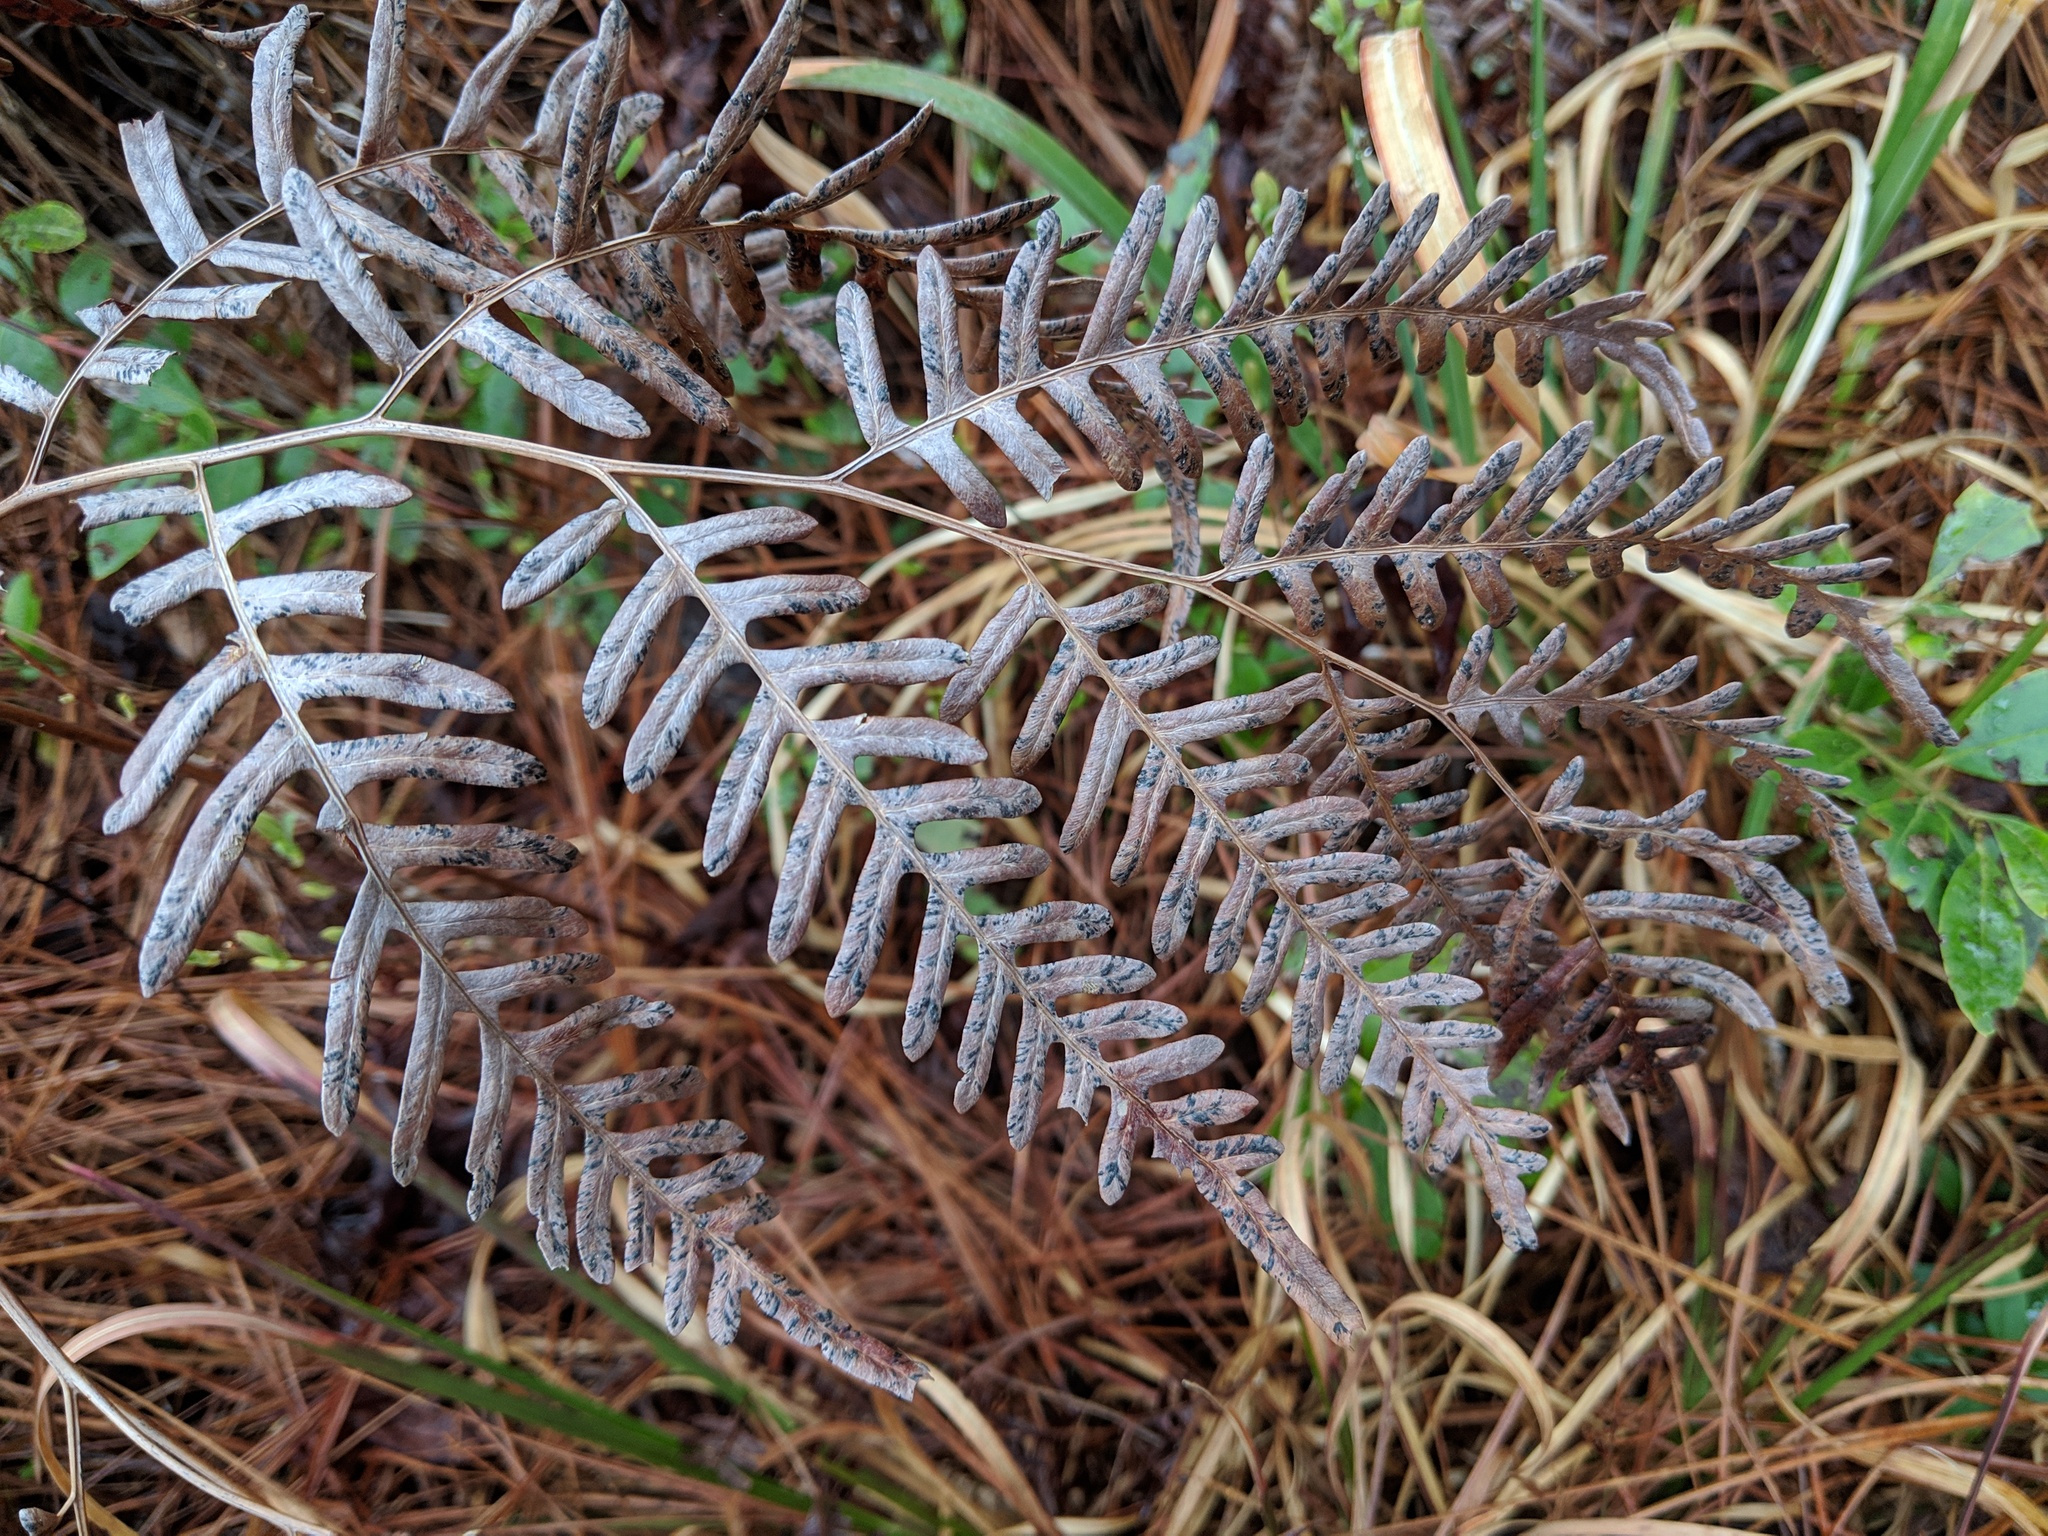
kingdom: Plantae
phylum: Tracheophyta
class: Polypodiopsida
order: Polypodiales
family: Dennstaedtiaceae
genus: Pteridium
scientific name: Pteridium aquilinum
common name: Bracken
